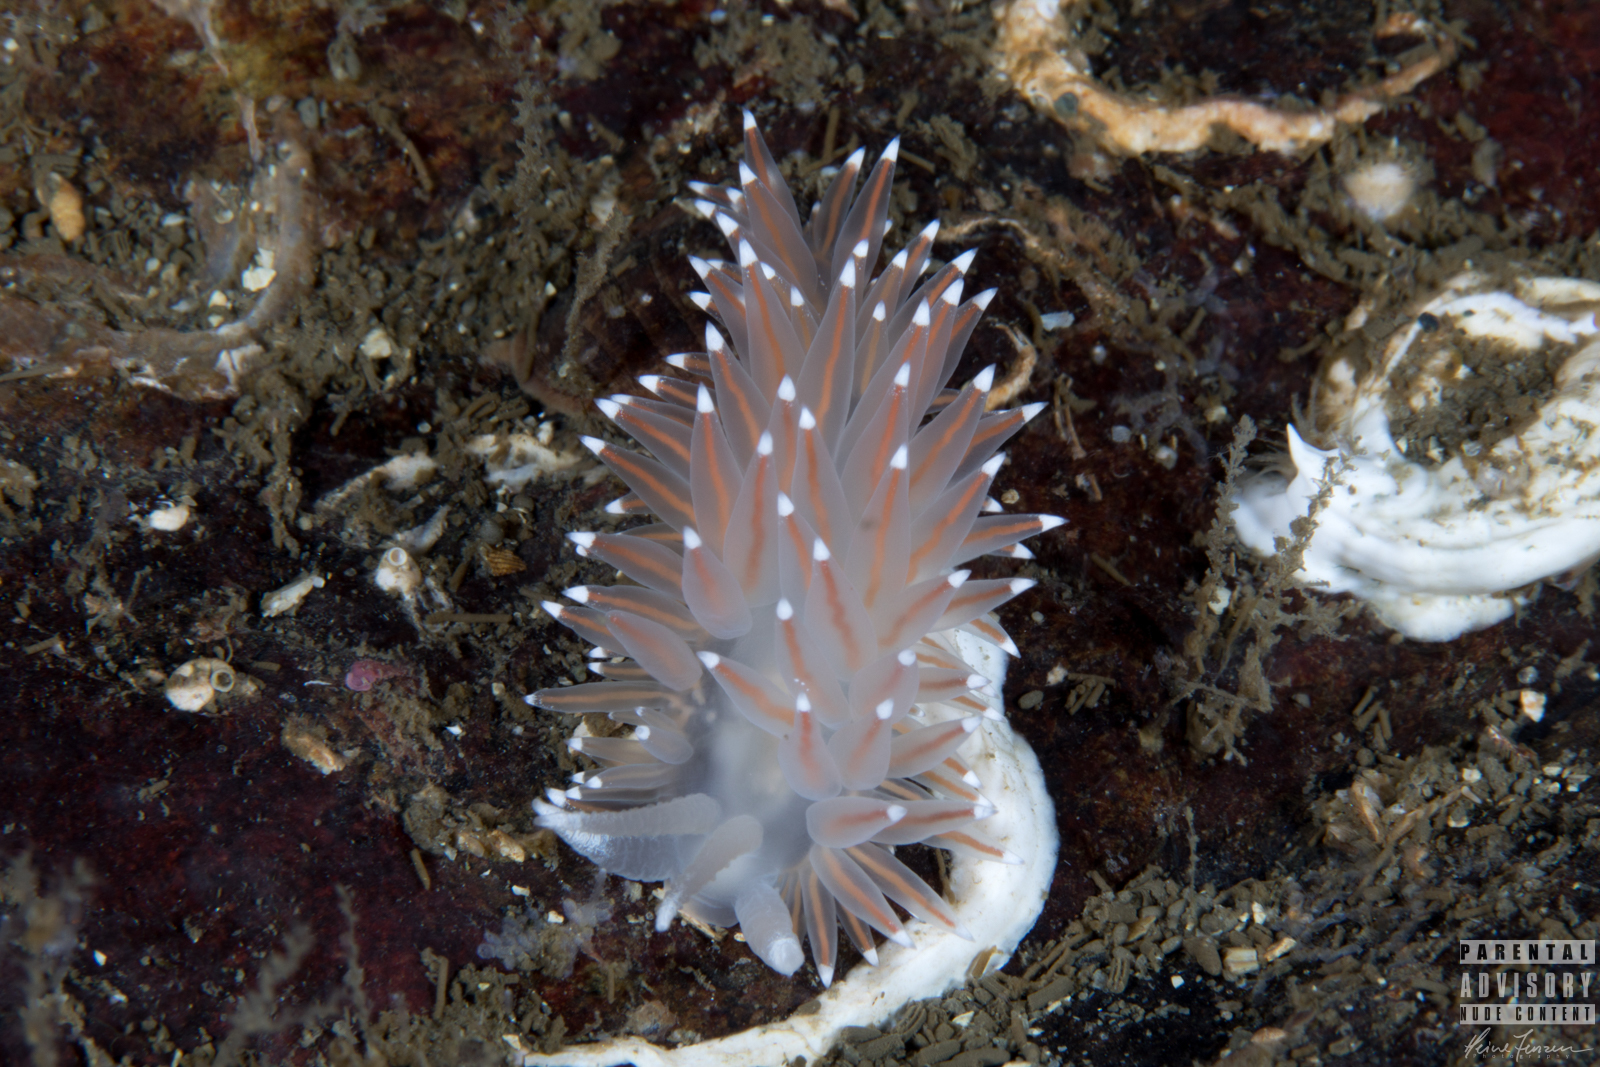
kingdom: Animalia
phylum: Mollusca
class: Gastropoda
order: Nudibranchia
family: Coryphellidae
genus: Coryphella
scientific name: Coryphella nobilis
